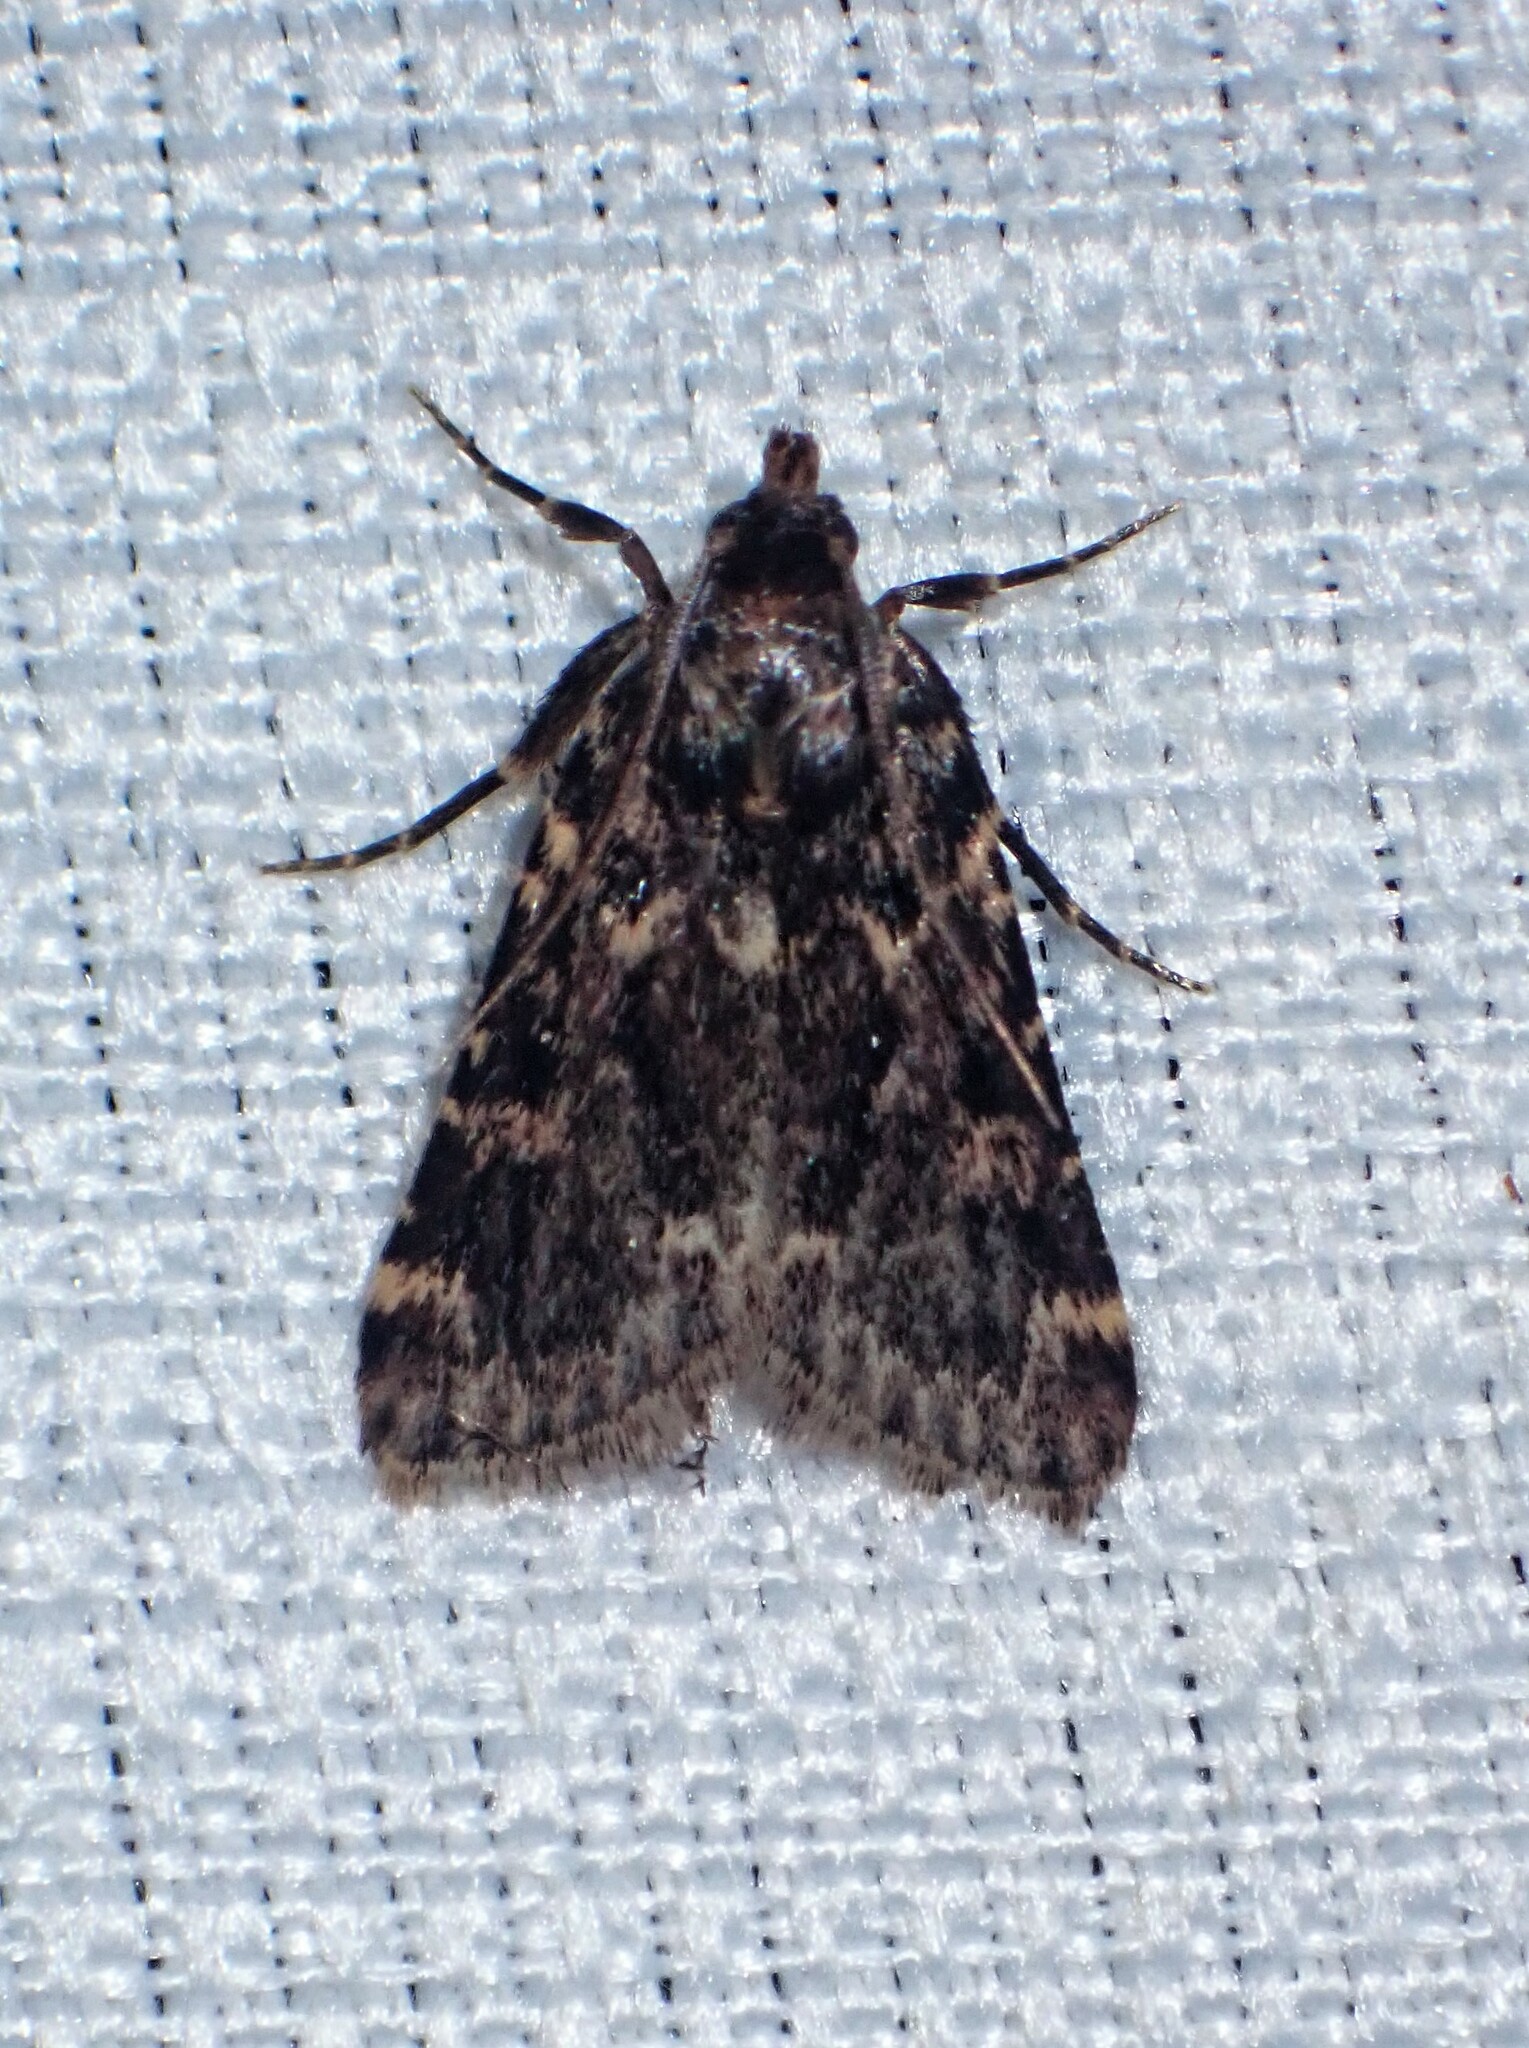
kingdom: Animalia
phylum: Arthropoda
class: Insecta
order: Lepidoptera
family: Pyralidae
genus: Aglossa
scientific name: Aglossa caprealis
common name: Small tabby
